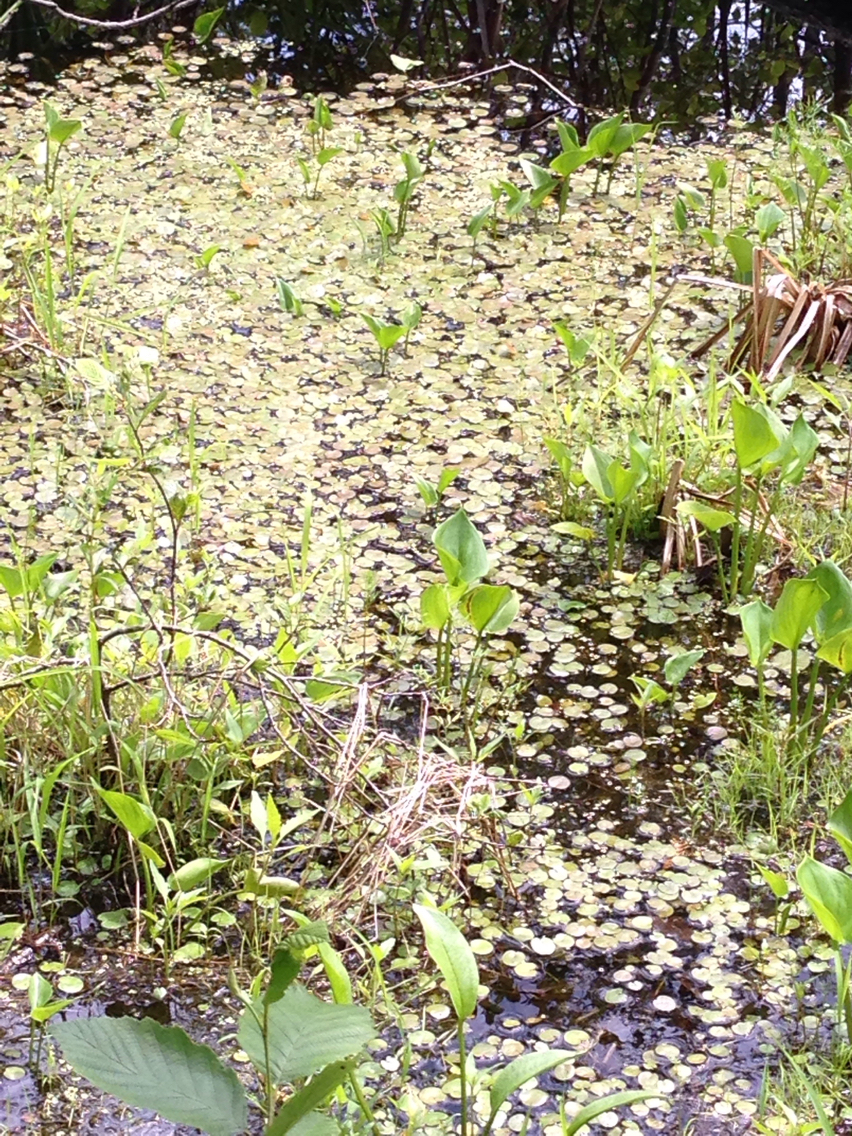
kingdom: Plantae
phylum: Tracheophyta
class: Liliopsida
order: Alismatales
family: Hydrocharitaceae
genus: Hydrocharis
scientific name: Hydrocharis morsus-ranae
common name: Frogbit
